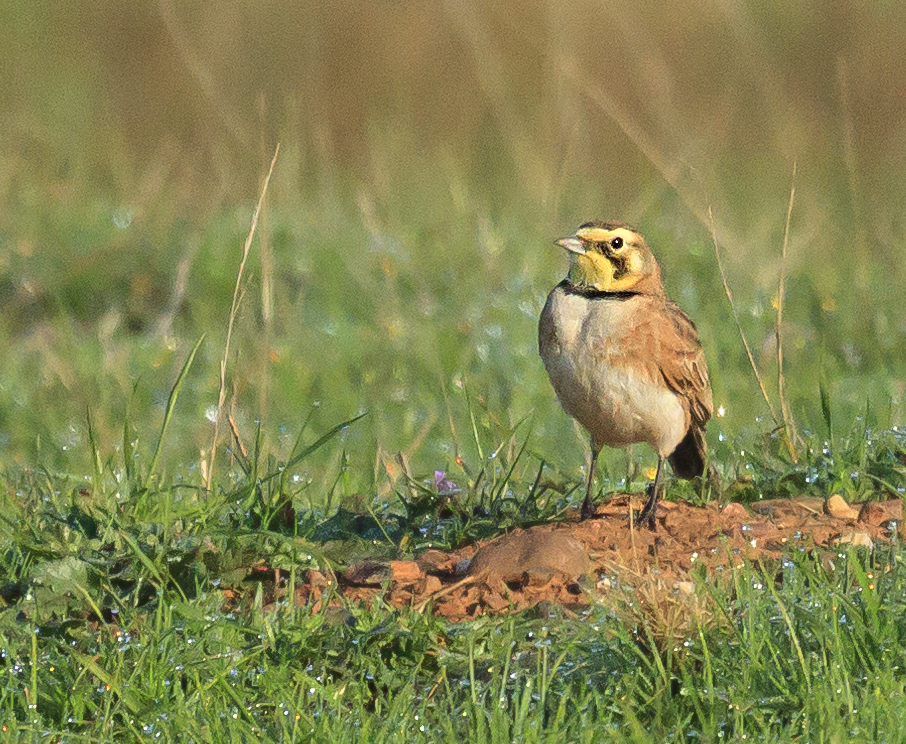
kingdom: Animalia
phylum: Chordata
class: Aves
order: Passeriformes
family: Alaudidae
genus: Eremophila
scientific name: Eremophila alpestris
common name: Horned lark
